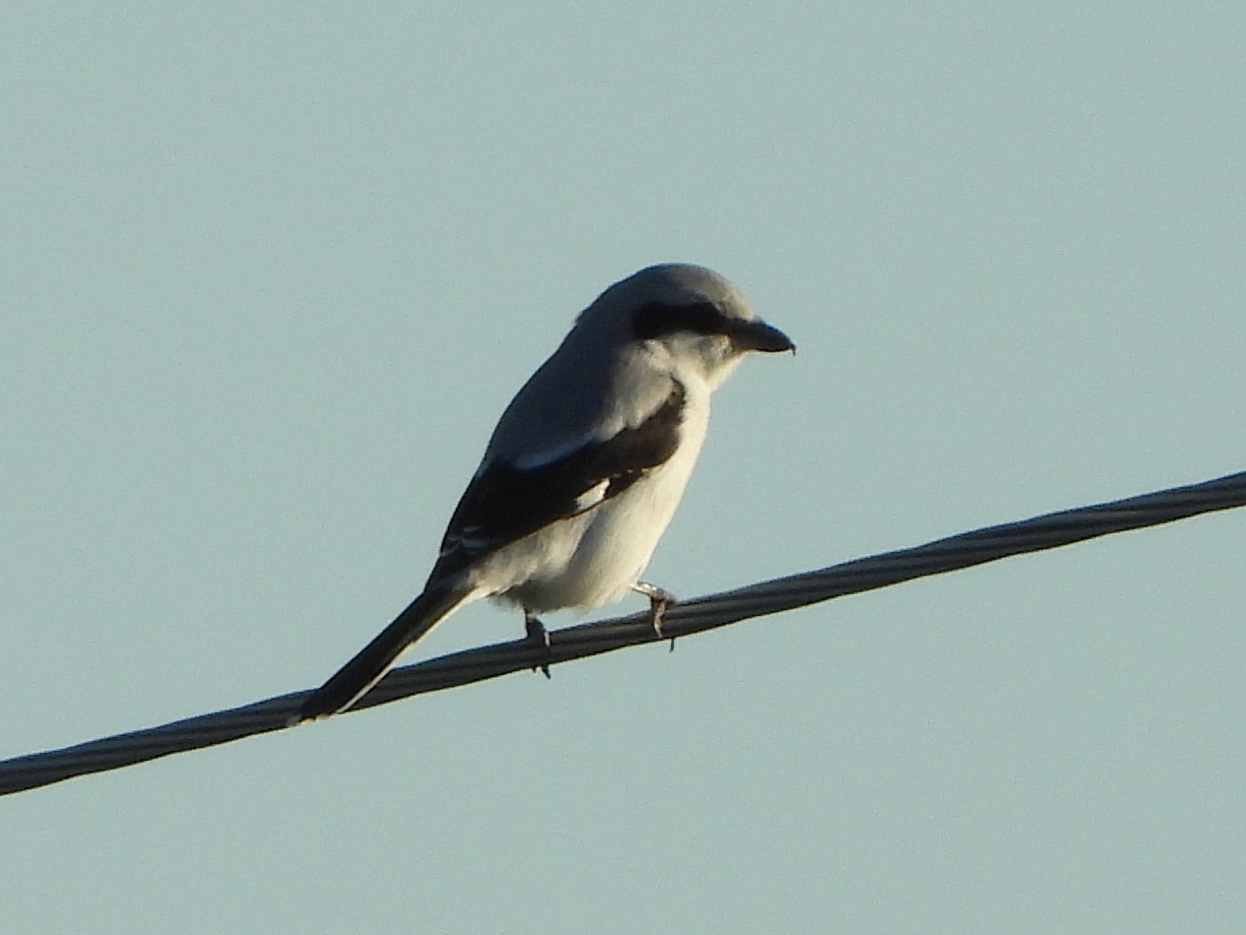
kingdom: Animalia
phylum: Chordata
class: Aves
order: Passeriformes
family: Laniidae
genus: Lanius
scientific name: Lanius excubitor
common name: Great grey shrike
